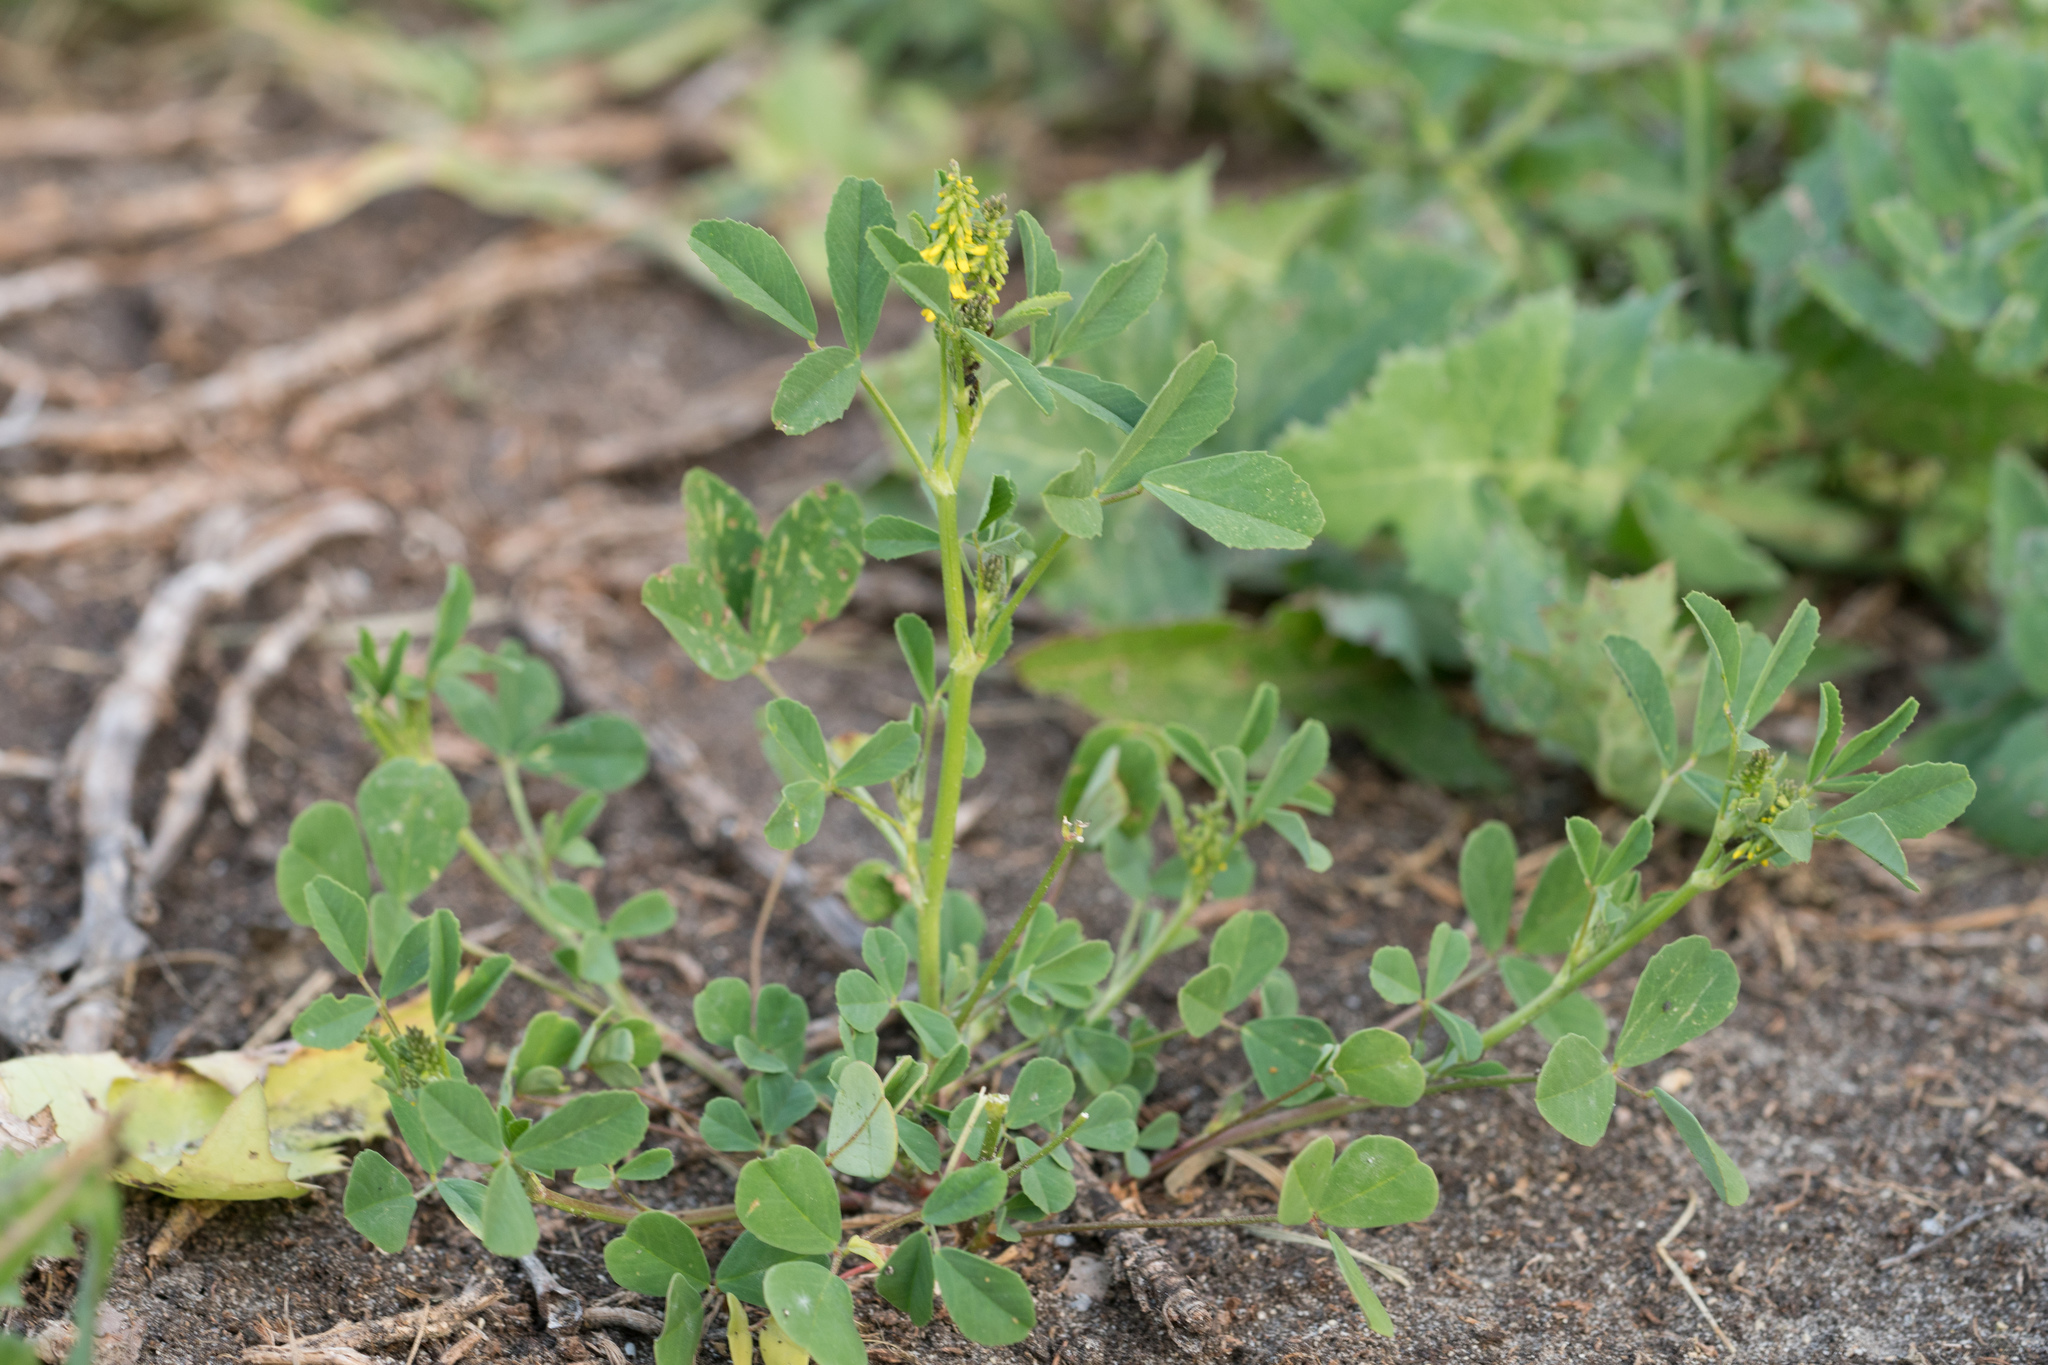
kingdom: Plantae
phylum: Tracheophyta
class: Magnoliopsida
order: Fabales
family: Fabaceae
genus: Melilotus
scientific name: Melilotus indicus
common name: Small melilot
